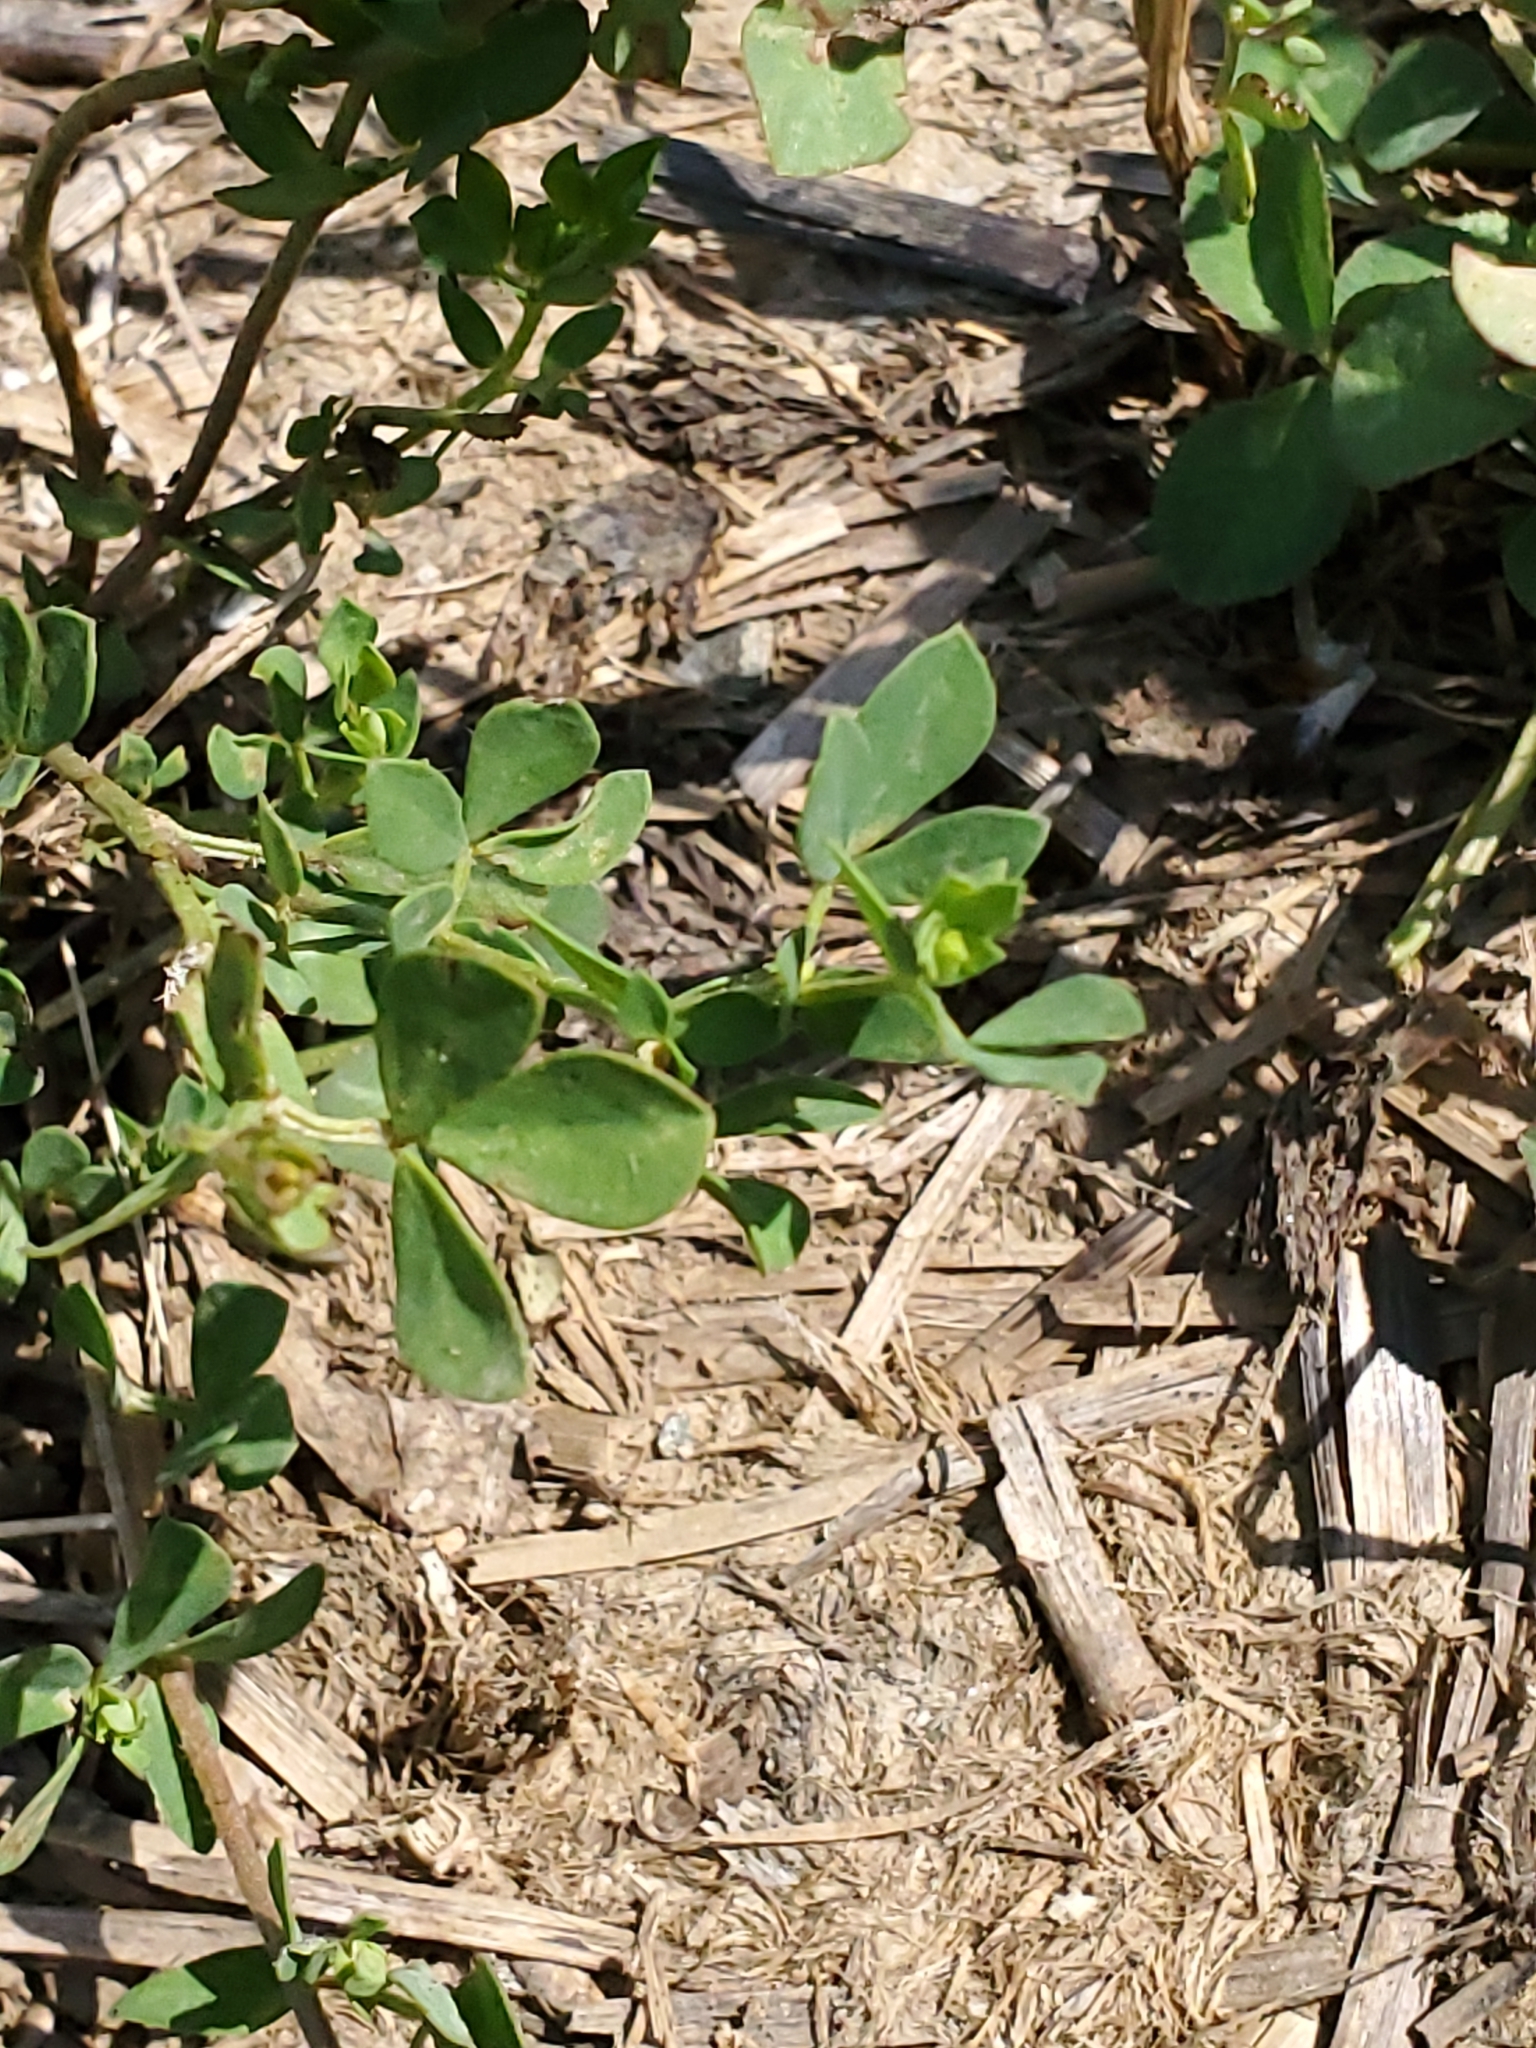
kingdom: Plantae
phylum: Tracheophyta
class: Magnoliopsida
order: Fabales
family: Fabaceae
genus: Lotus
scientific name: Lotus corniculatus
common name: Common bird's-foot-trefoil
